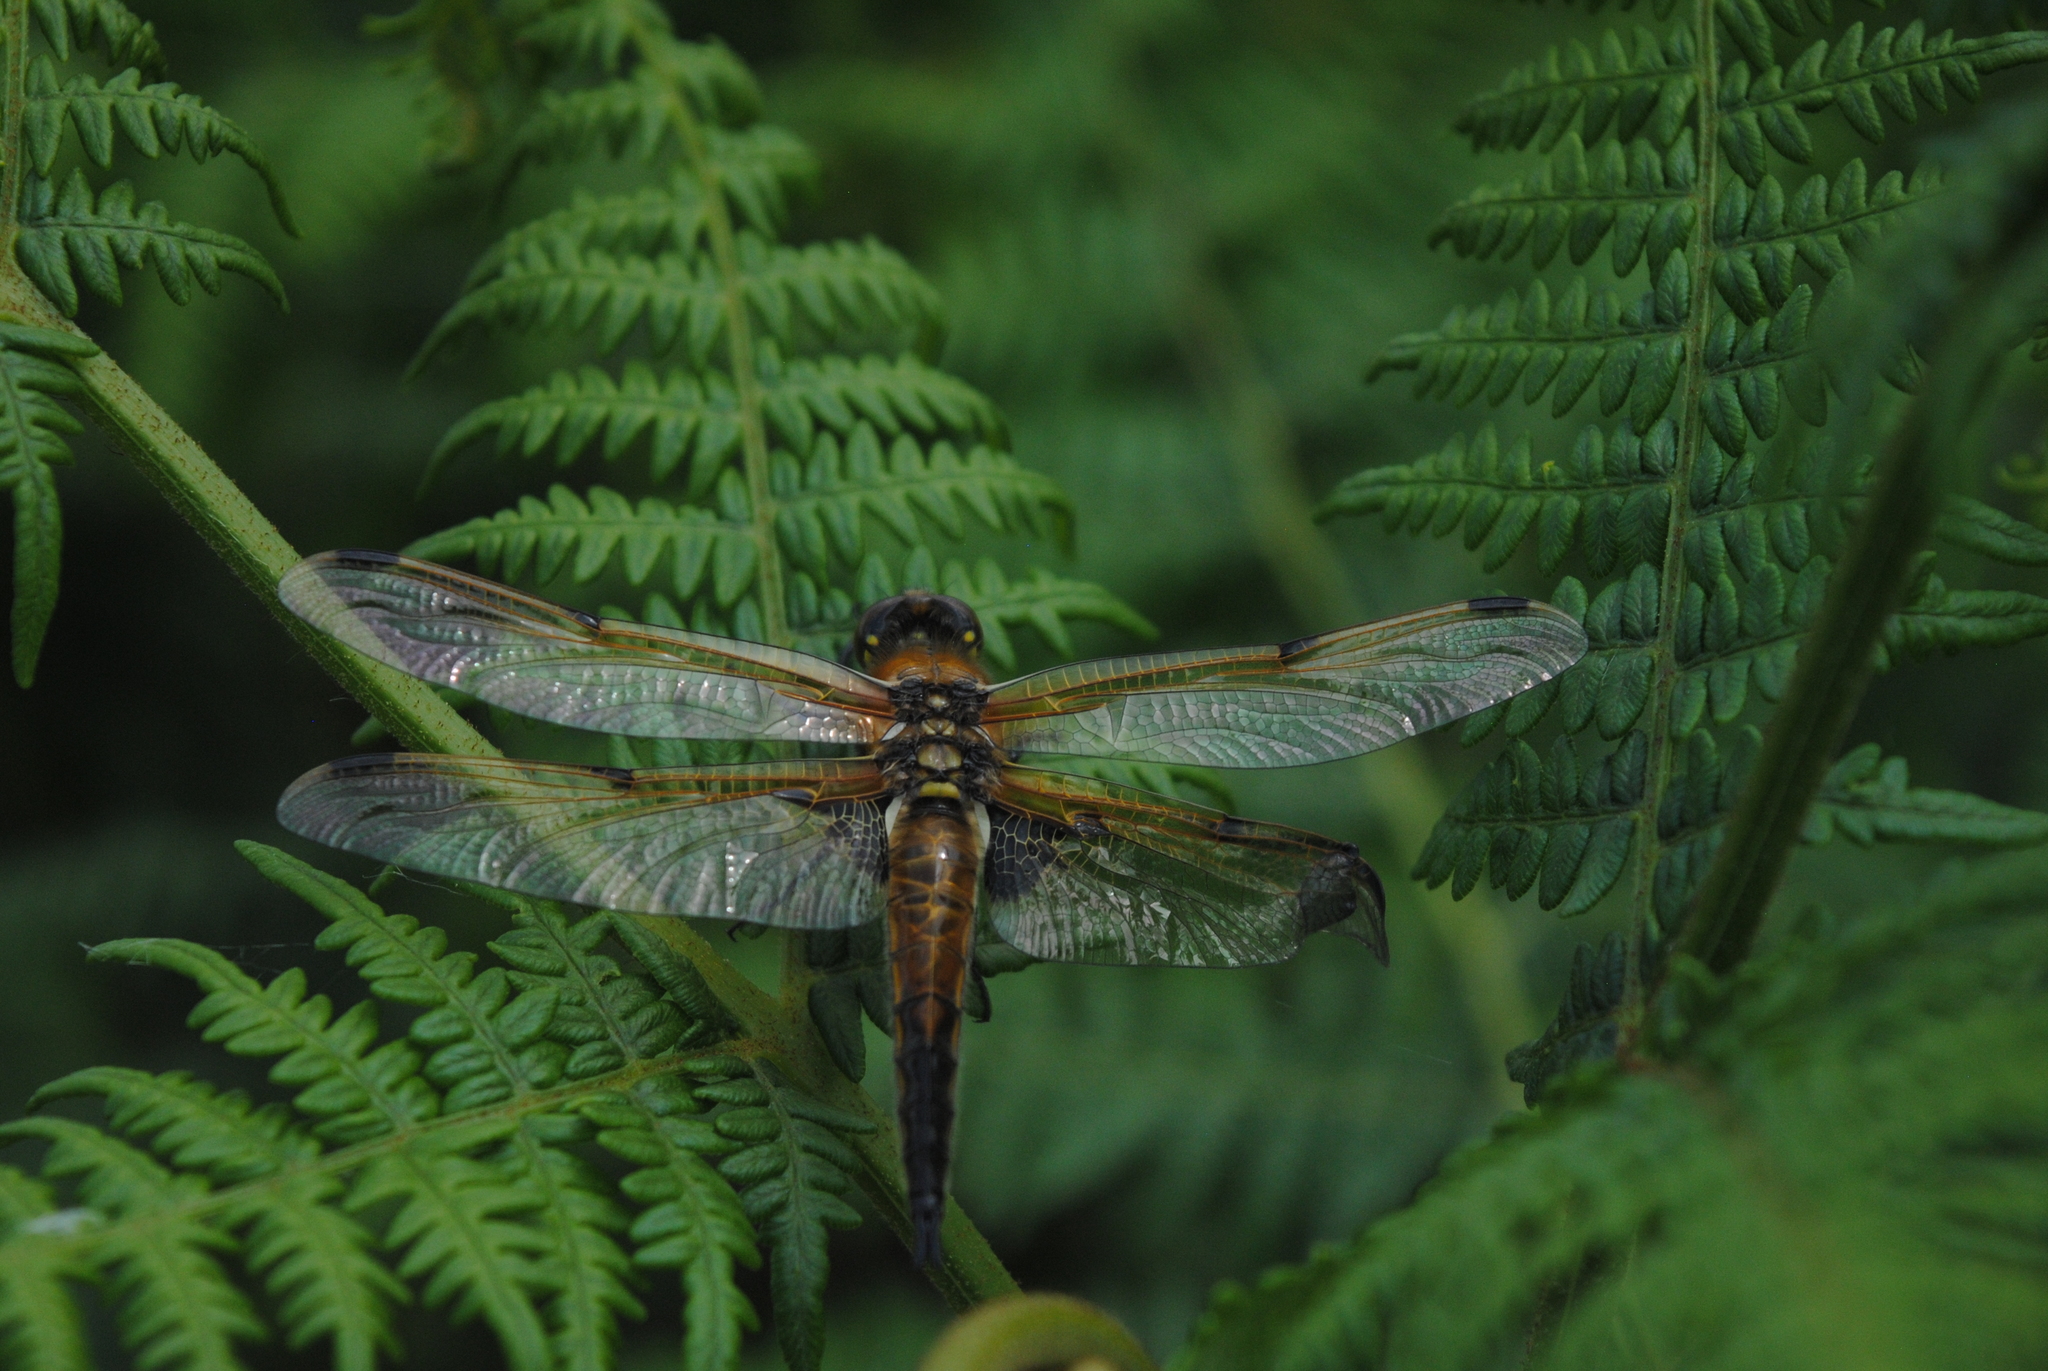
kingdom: Animalia
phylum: Arthropoda
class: Insecta
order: Odonata
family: Libellulidae
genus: Libellula
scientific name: Libellula quadrimaculata
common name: Four-spotted chaser
